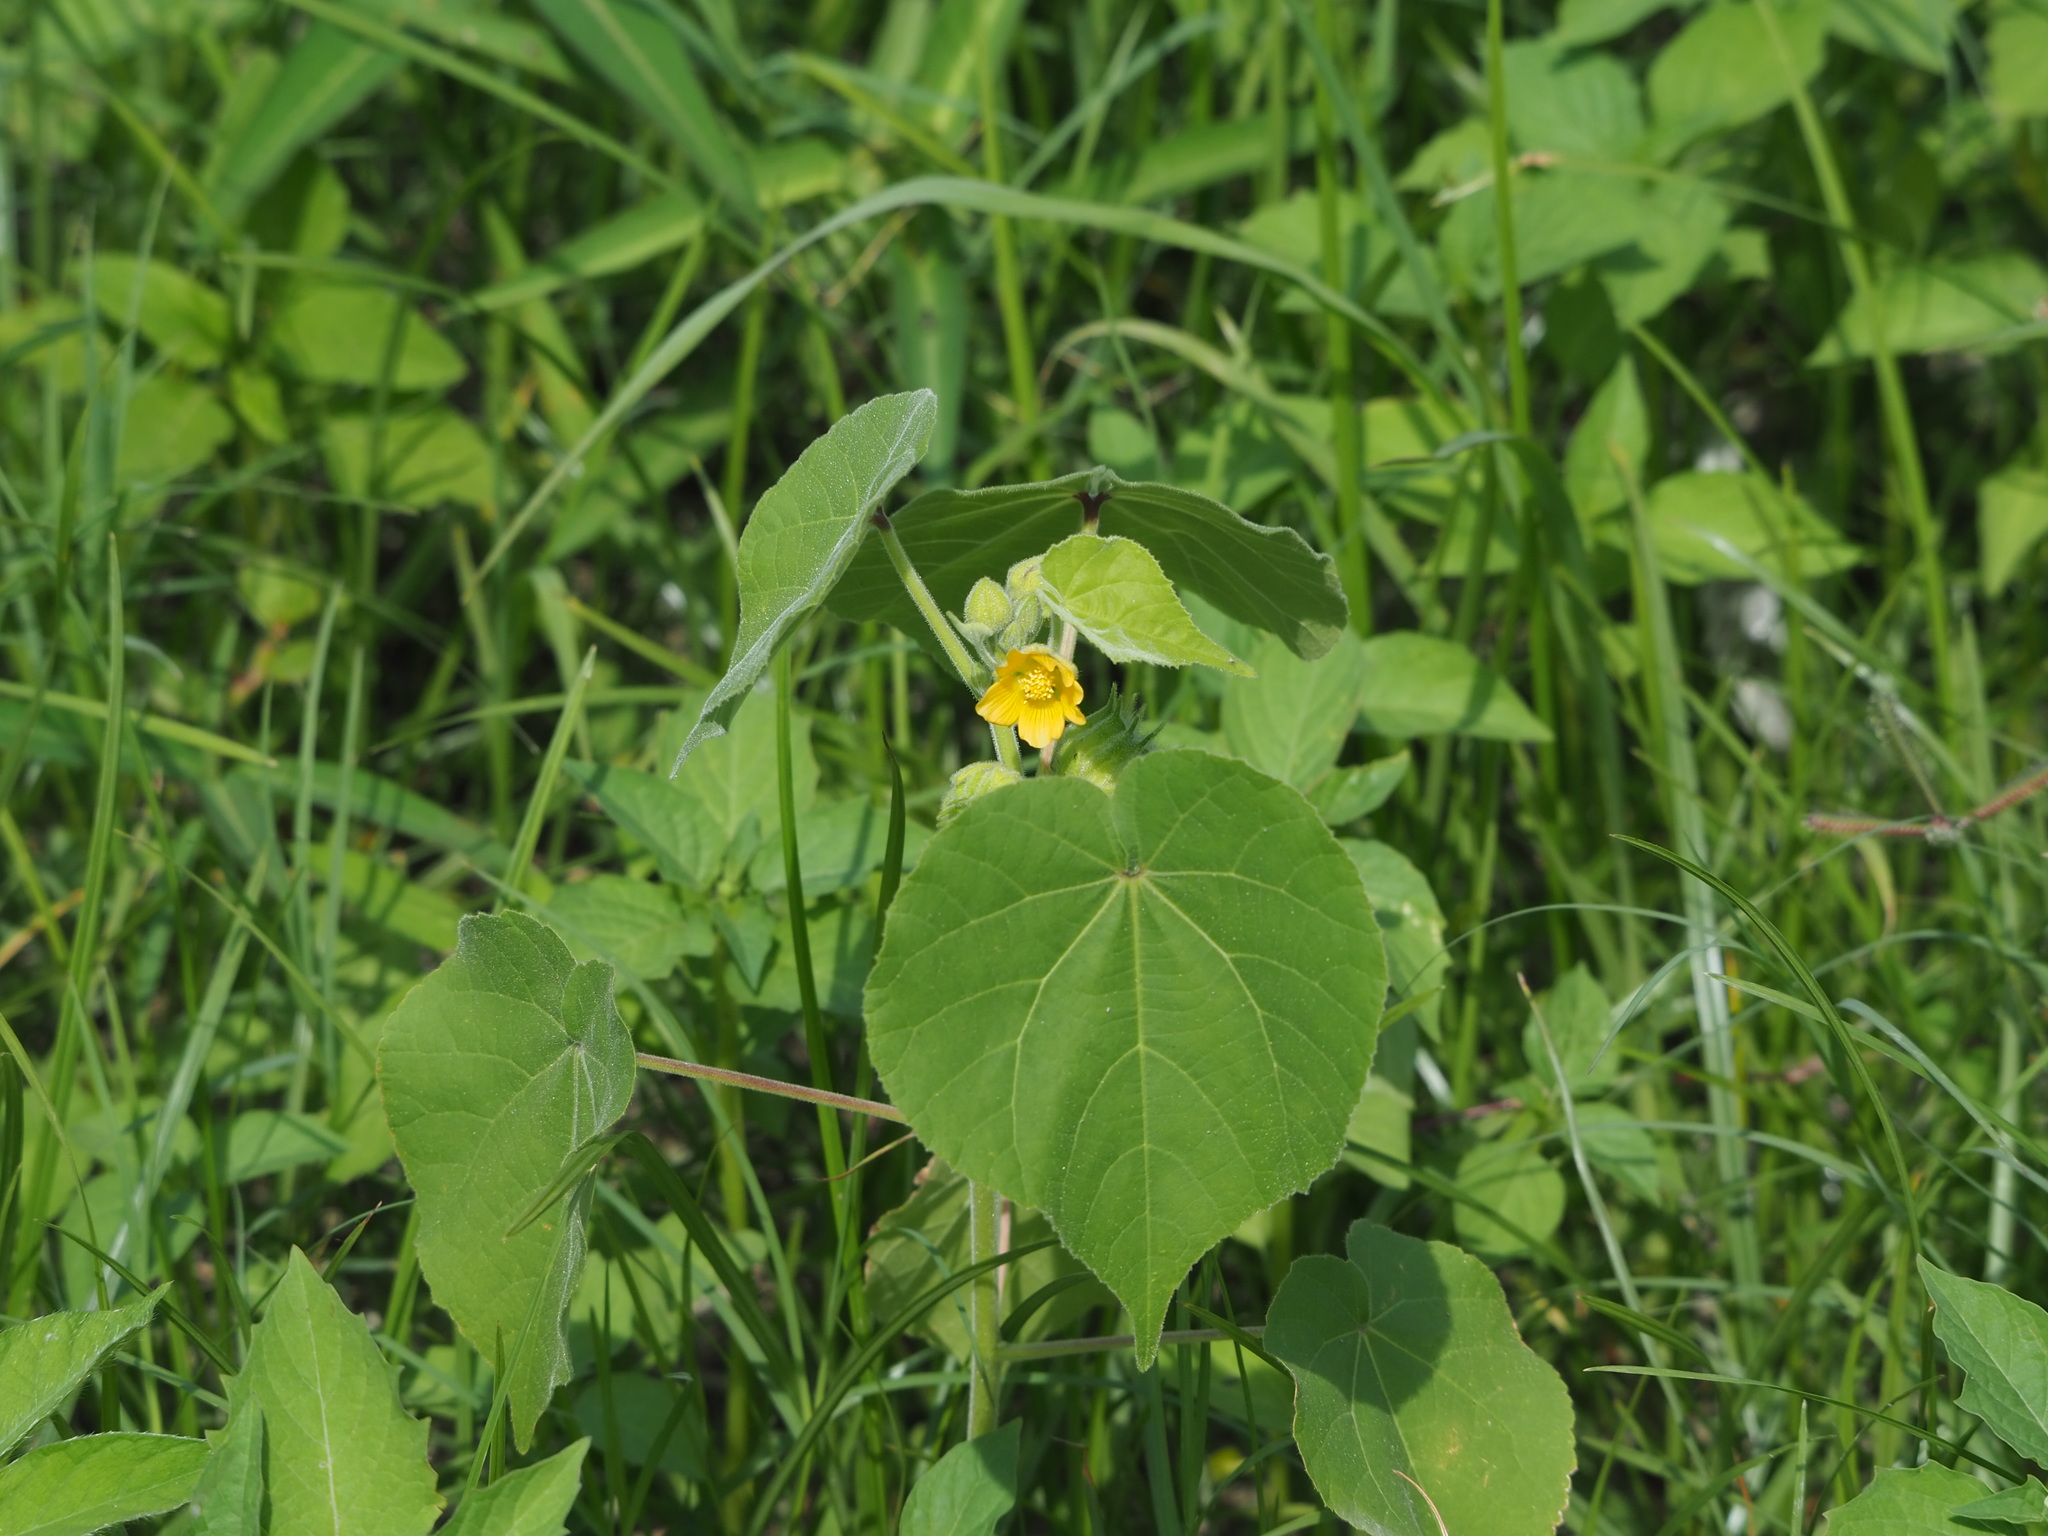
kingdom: Plantae
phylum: Tracheophyta
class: Magnoliopsida
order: Malvales
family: Malvaceae
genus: Abutilon
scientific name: Abutilon theophrasti
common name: Velvetleaf
